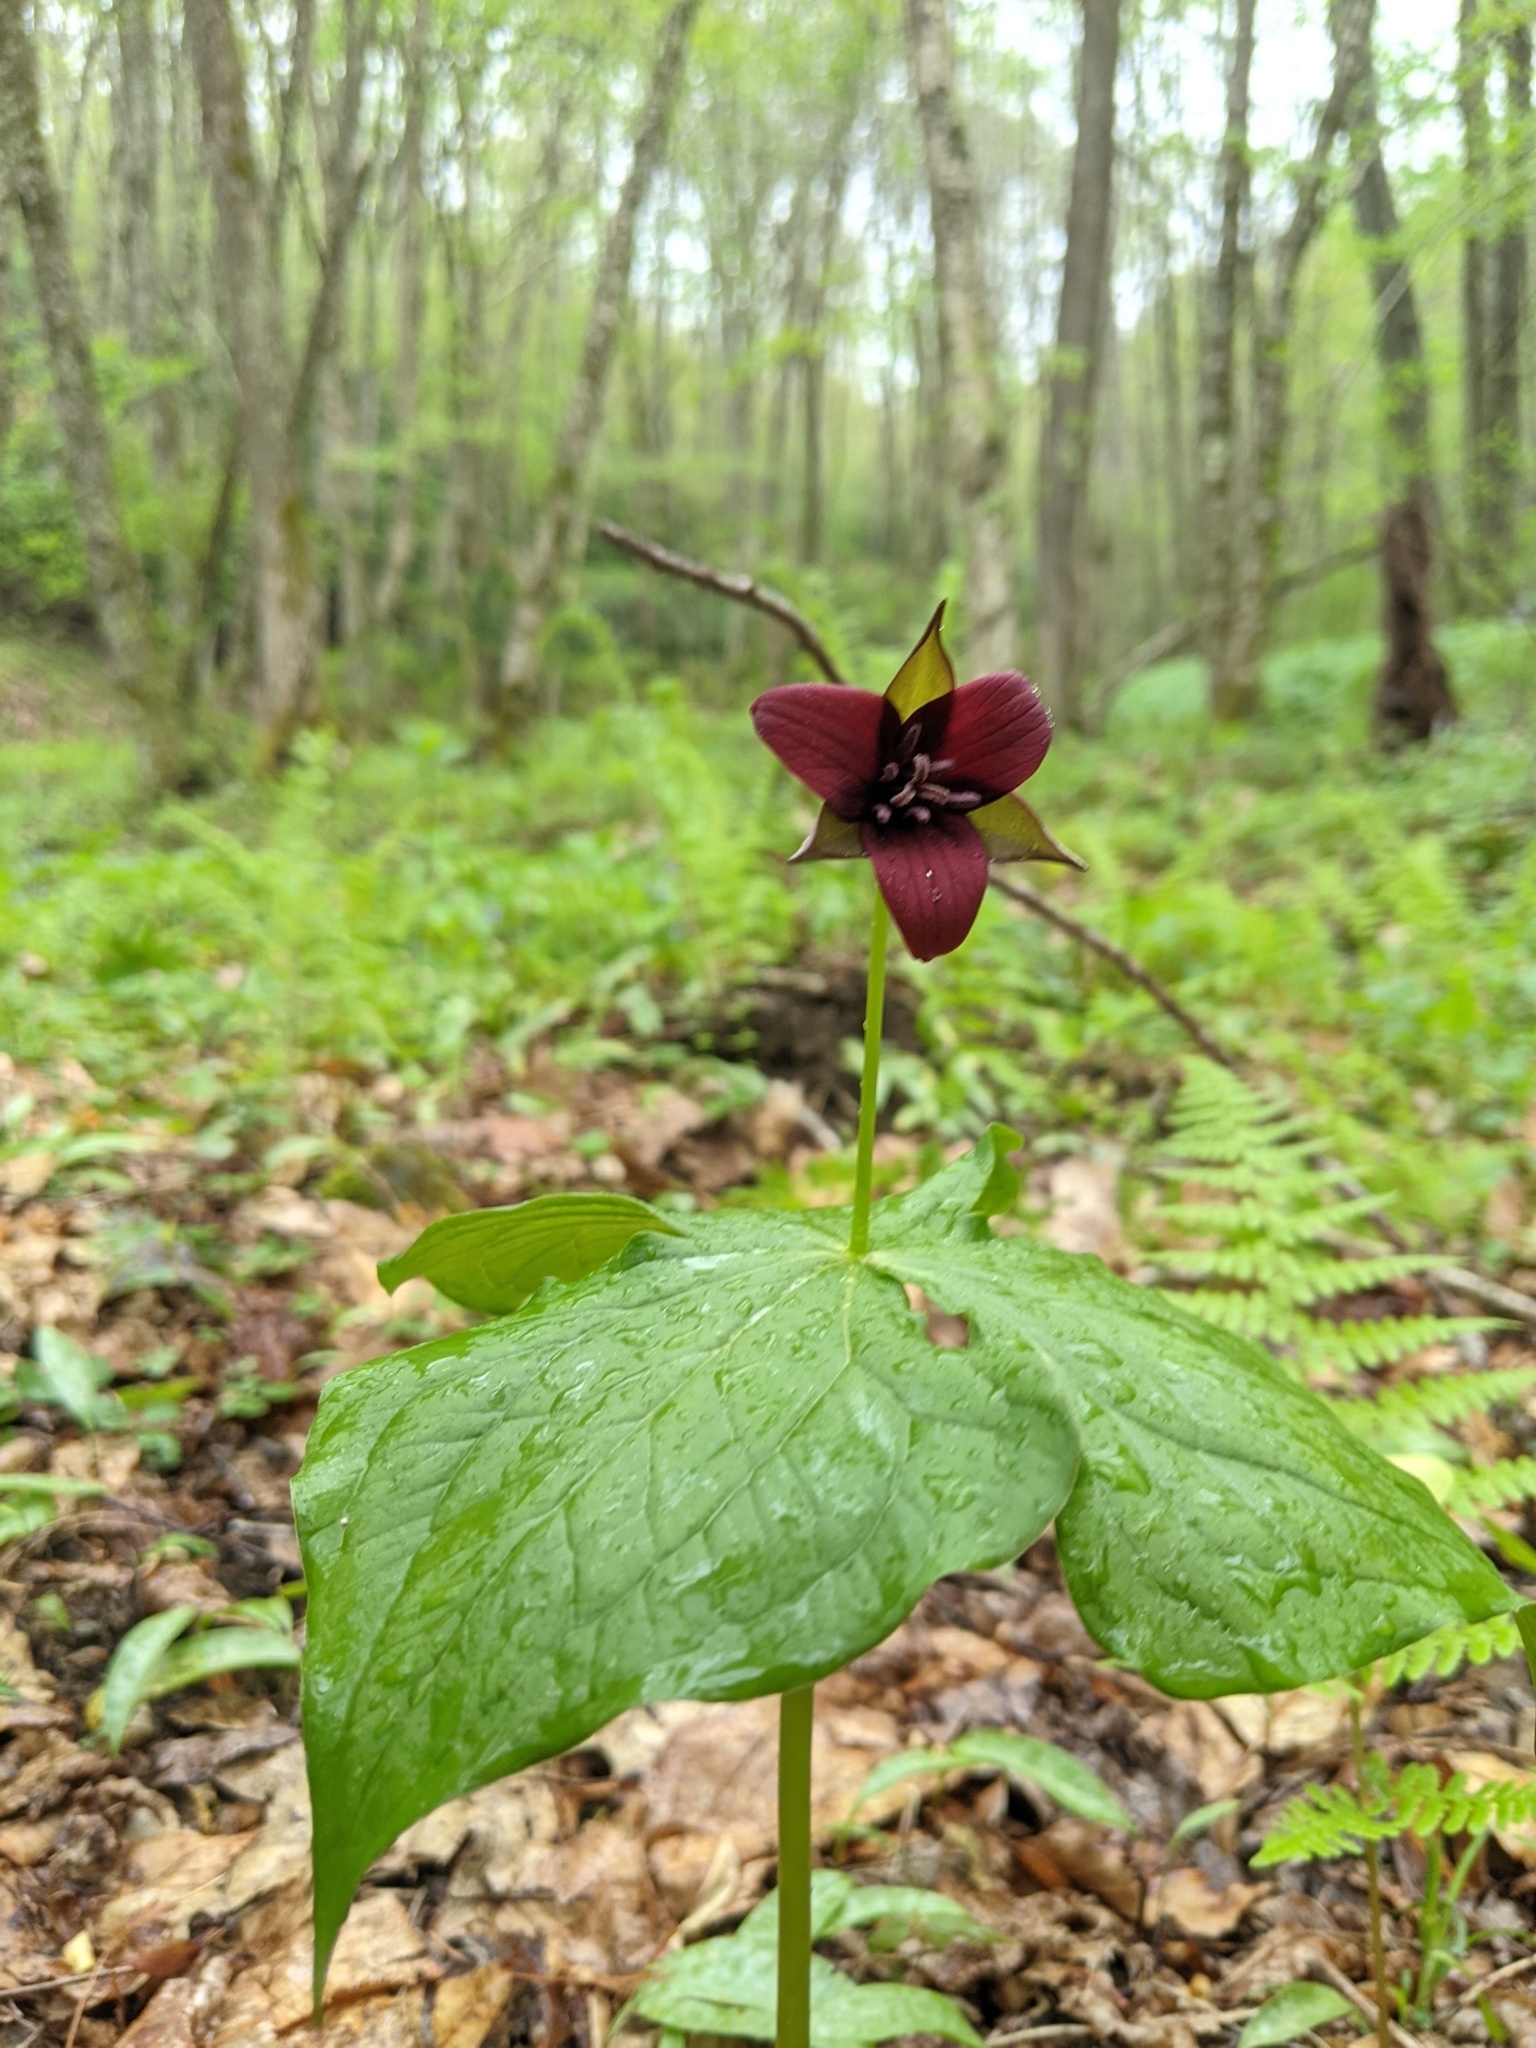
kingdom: Plantae
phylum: Tracheophyta
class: Liliopsida
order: Liliales
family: Melanthiaceae
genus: Trillium
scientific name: Trillium erectum
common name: Purple trillium
